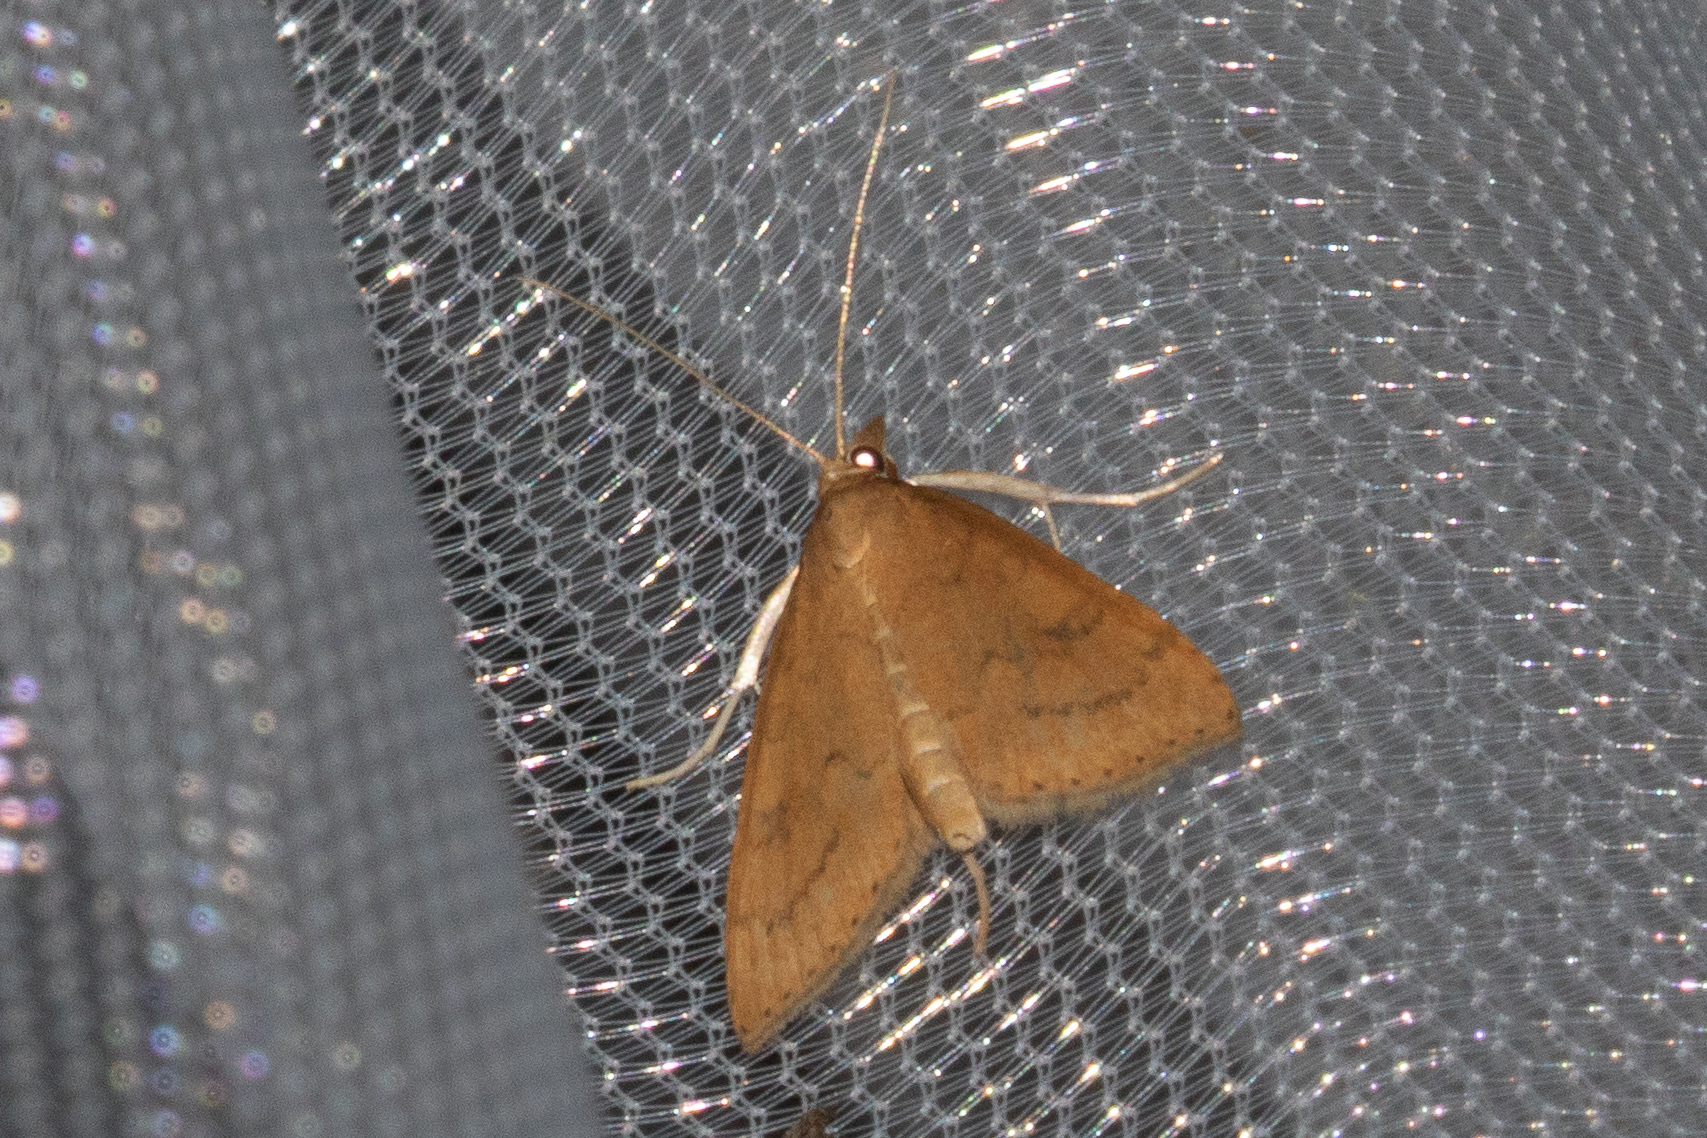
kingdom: Animalia
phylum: Arthropoda
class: Insecta
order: Lepidoptera
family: Crambidae
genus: Udea
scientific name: Udea rubigalis
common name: Celery leaftier moth
